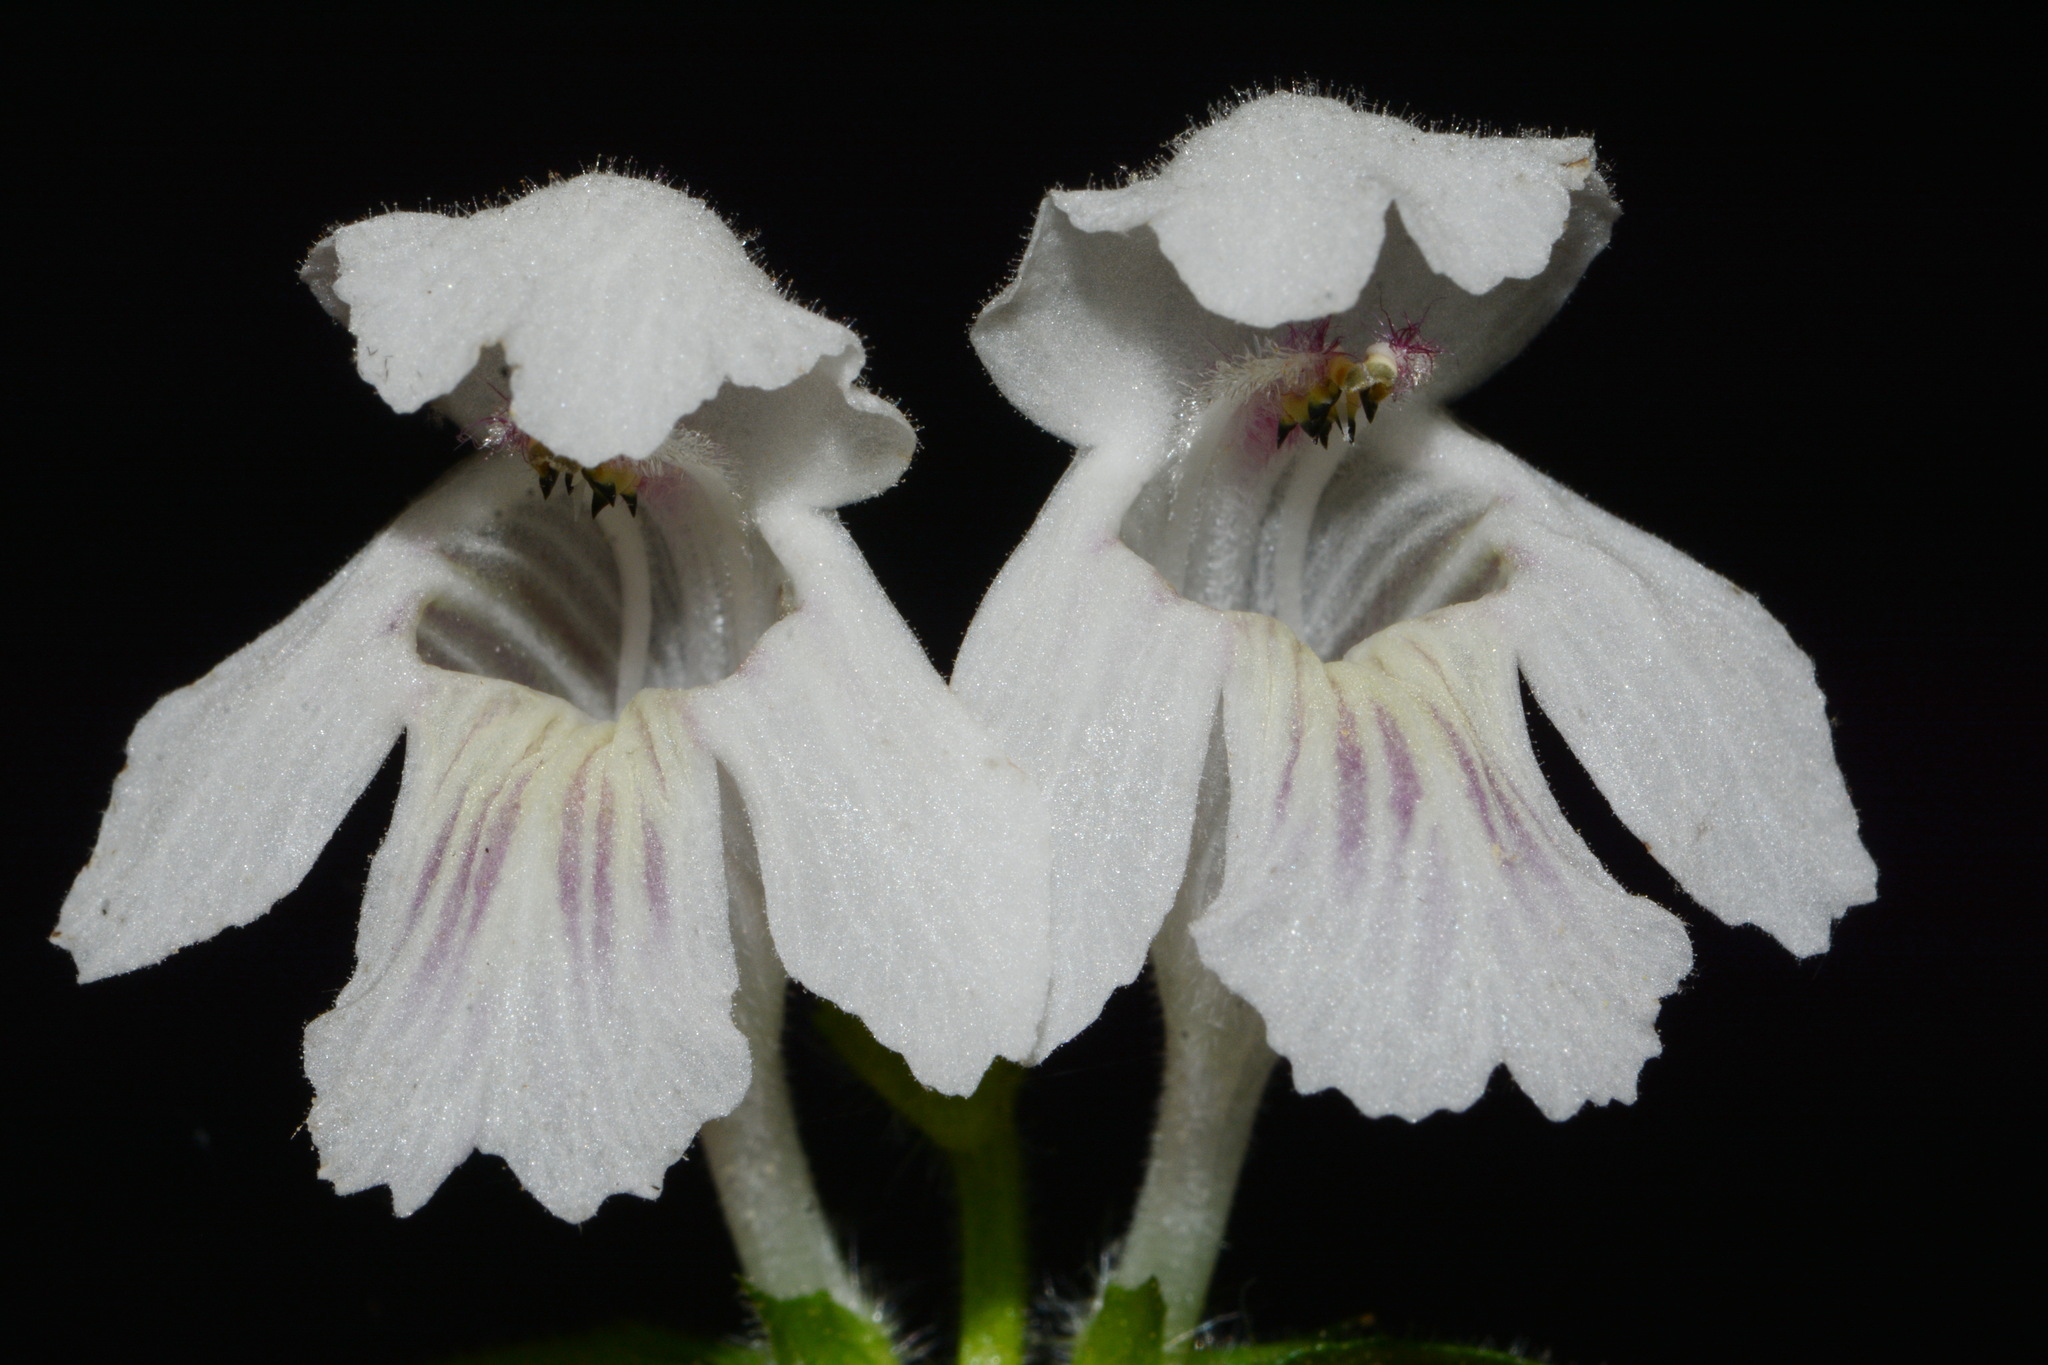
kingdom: Plantae
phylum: Tracheophyta
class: Magnoliopsida
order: Lamiales
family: Lamiaceae
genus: Synandra
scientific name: Synandra hispidula
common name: Synandra
